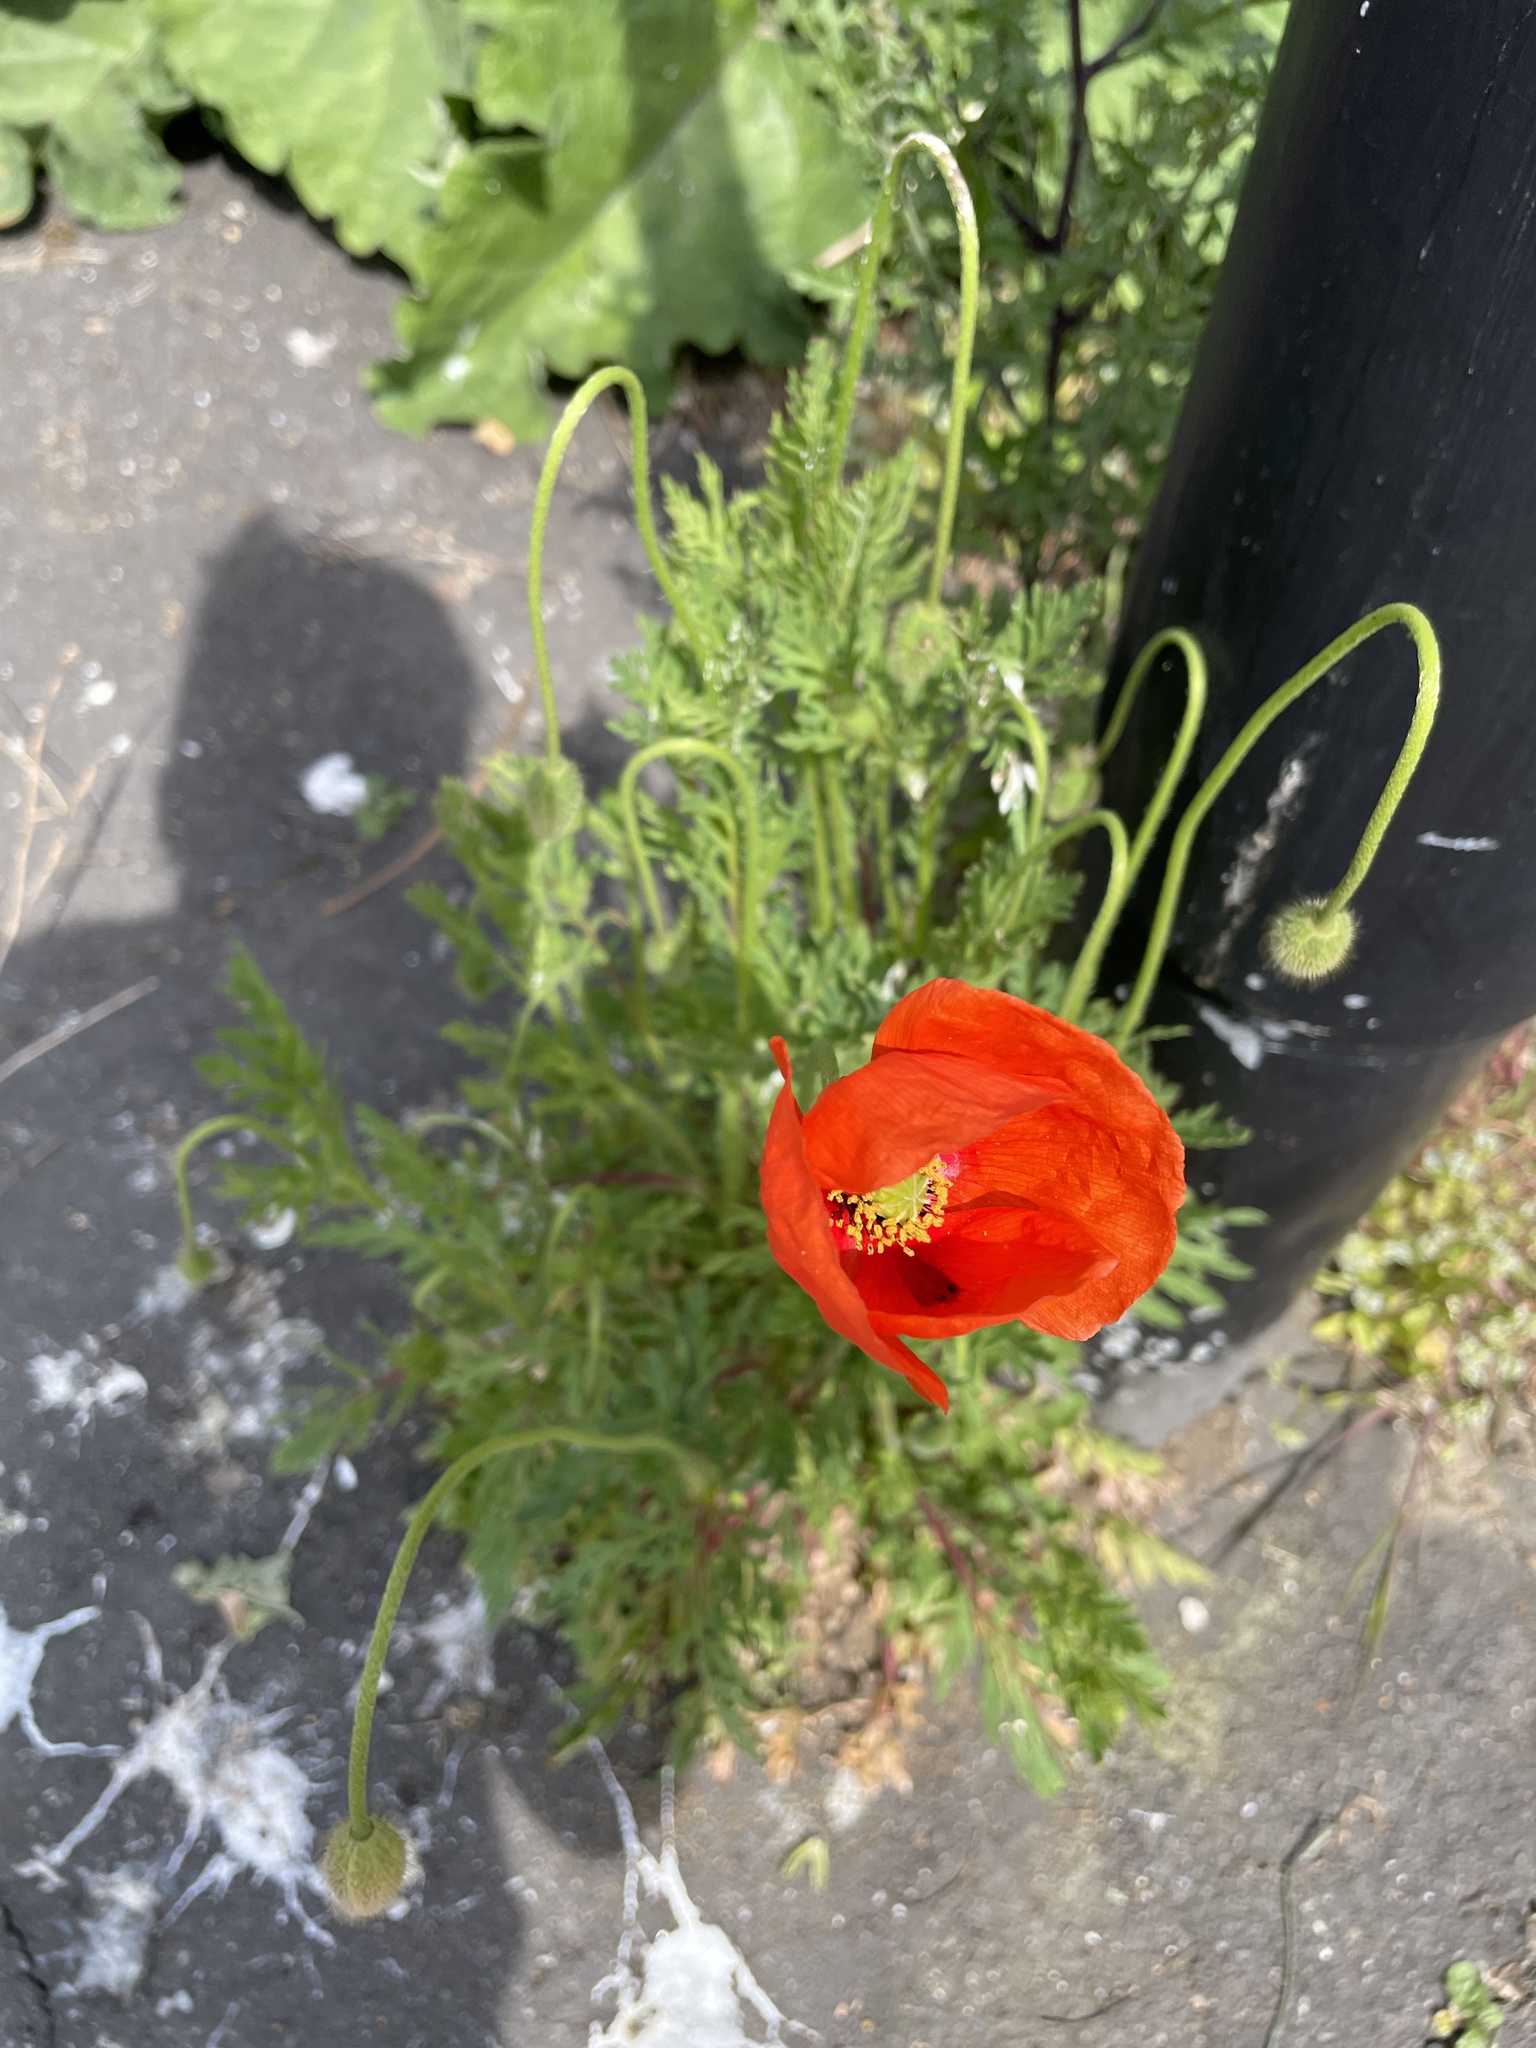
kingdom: Plantae
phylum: Tracheophyta
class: Magnoliopsida
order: Ranunculales
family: Papaveraceae
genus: Papaver
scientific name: Papaver dubium
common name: Long-headed poppy
